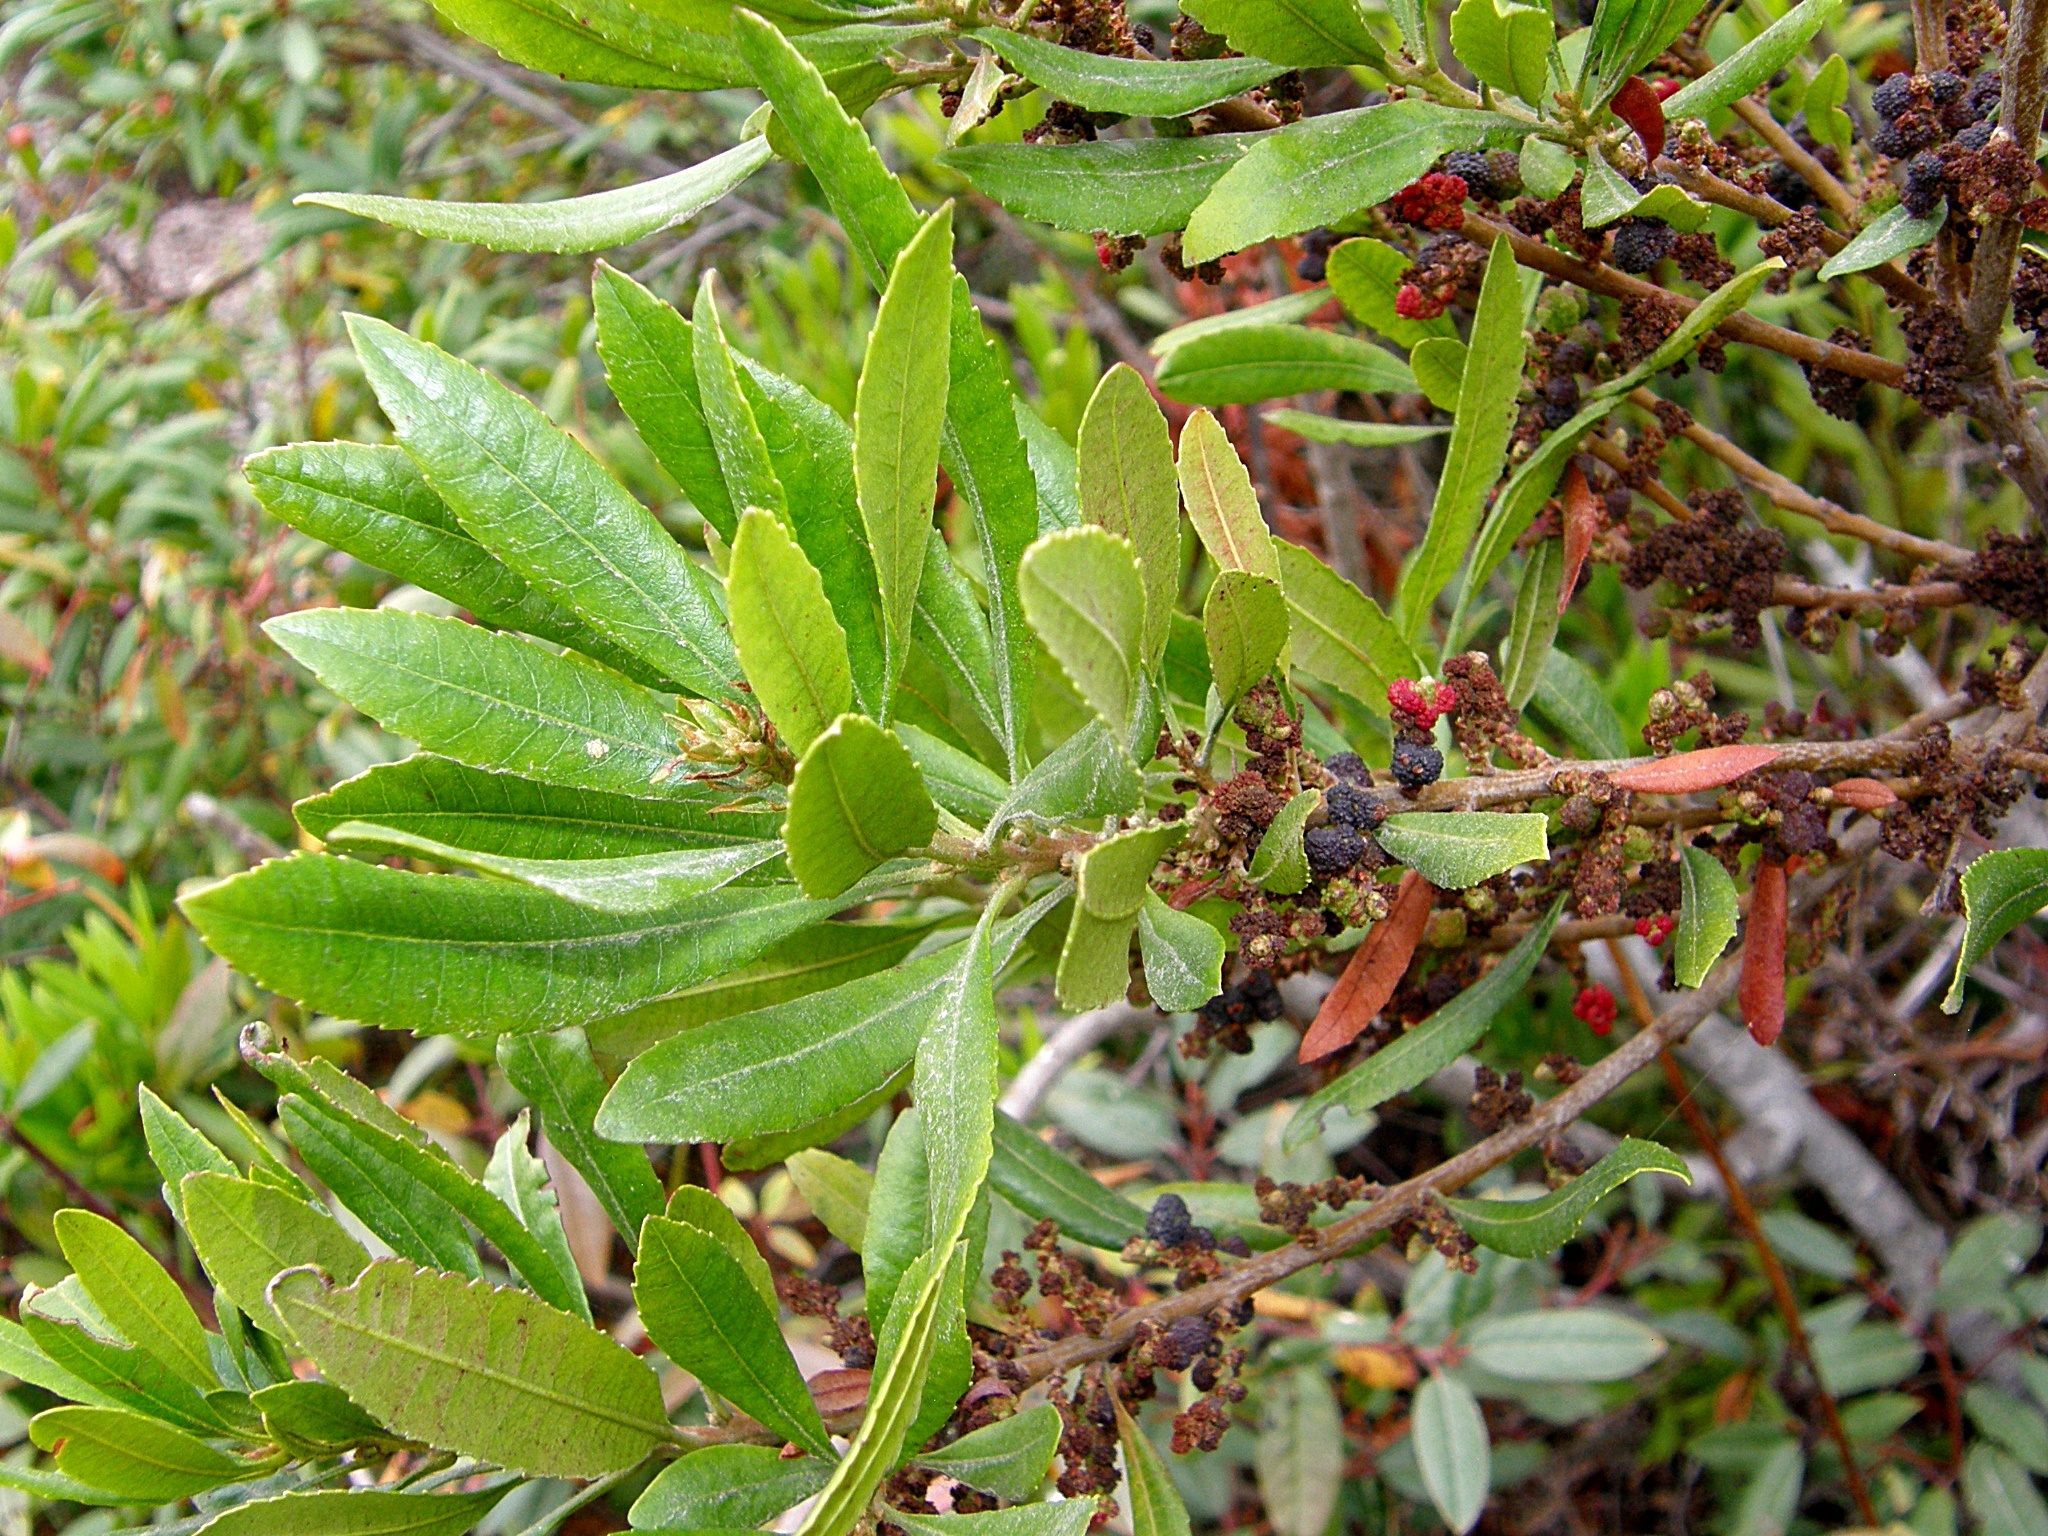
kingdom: Plantae
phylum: Tracheophyta
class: Magnoliopsida
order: Fagales
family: Myricaceae
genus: Morella
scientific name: Morella californica
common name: California wax-myrtle
